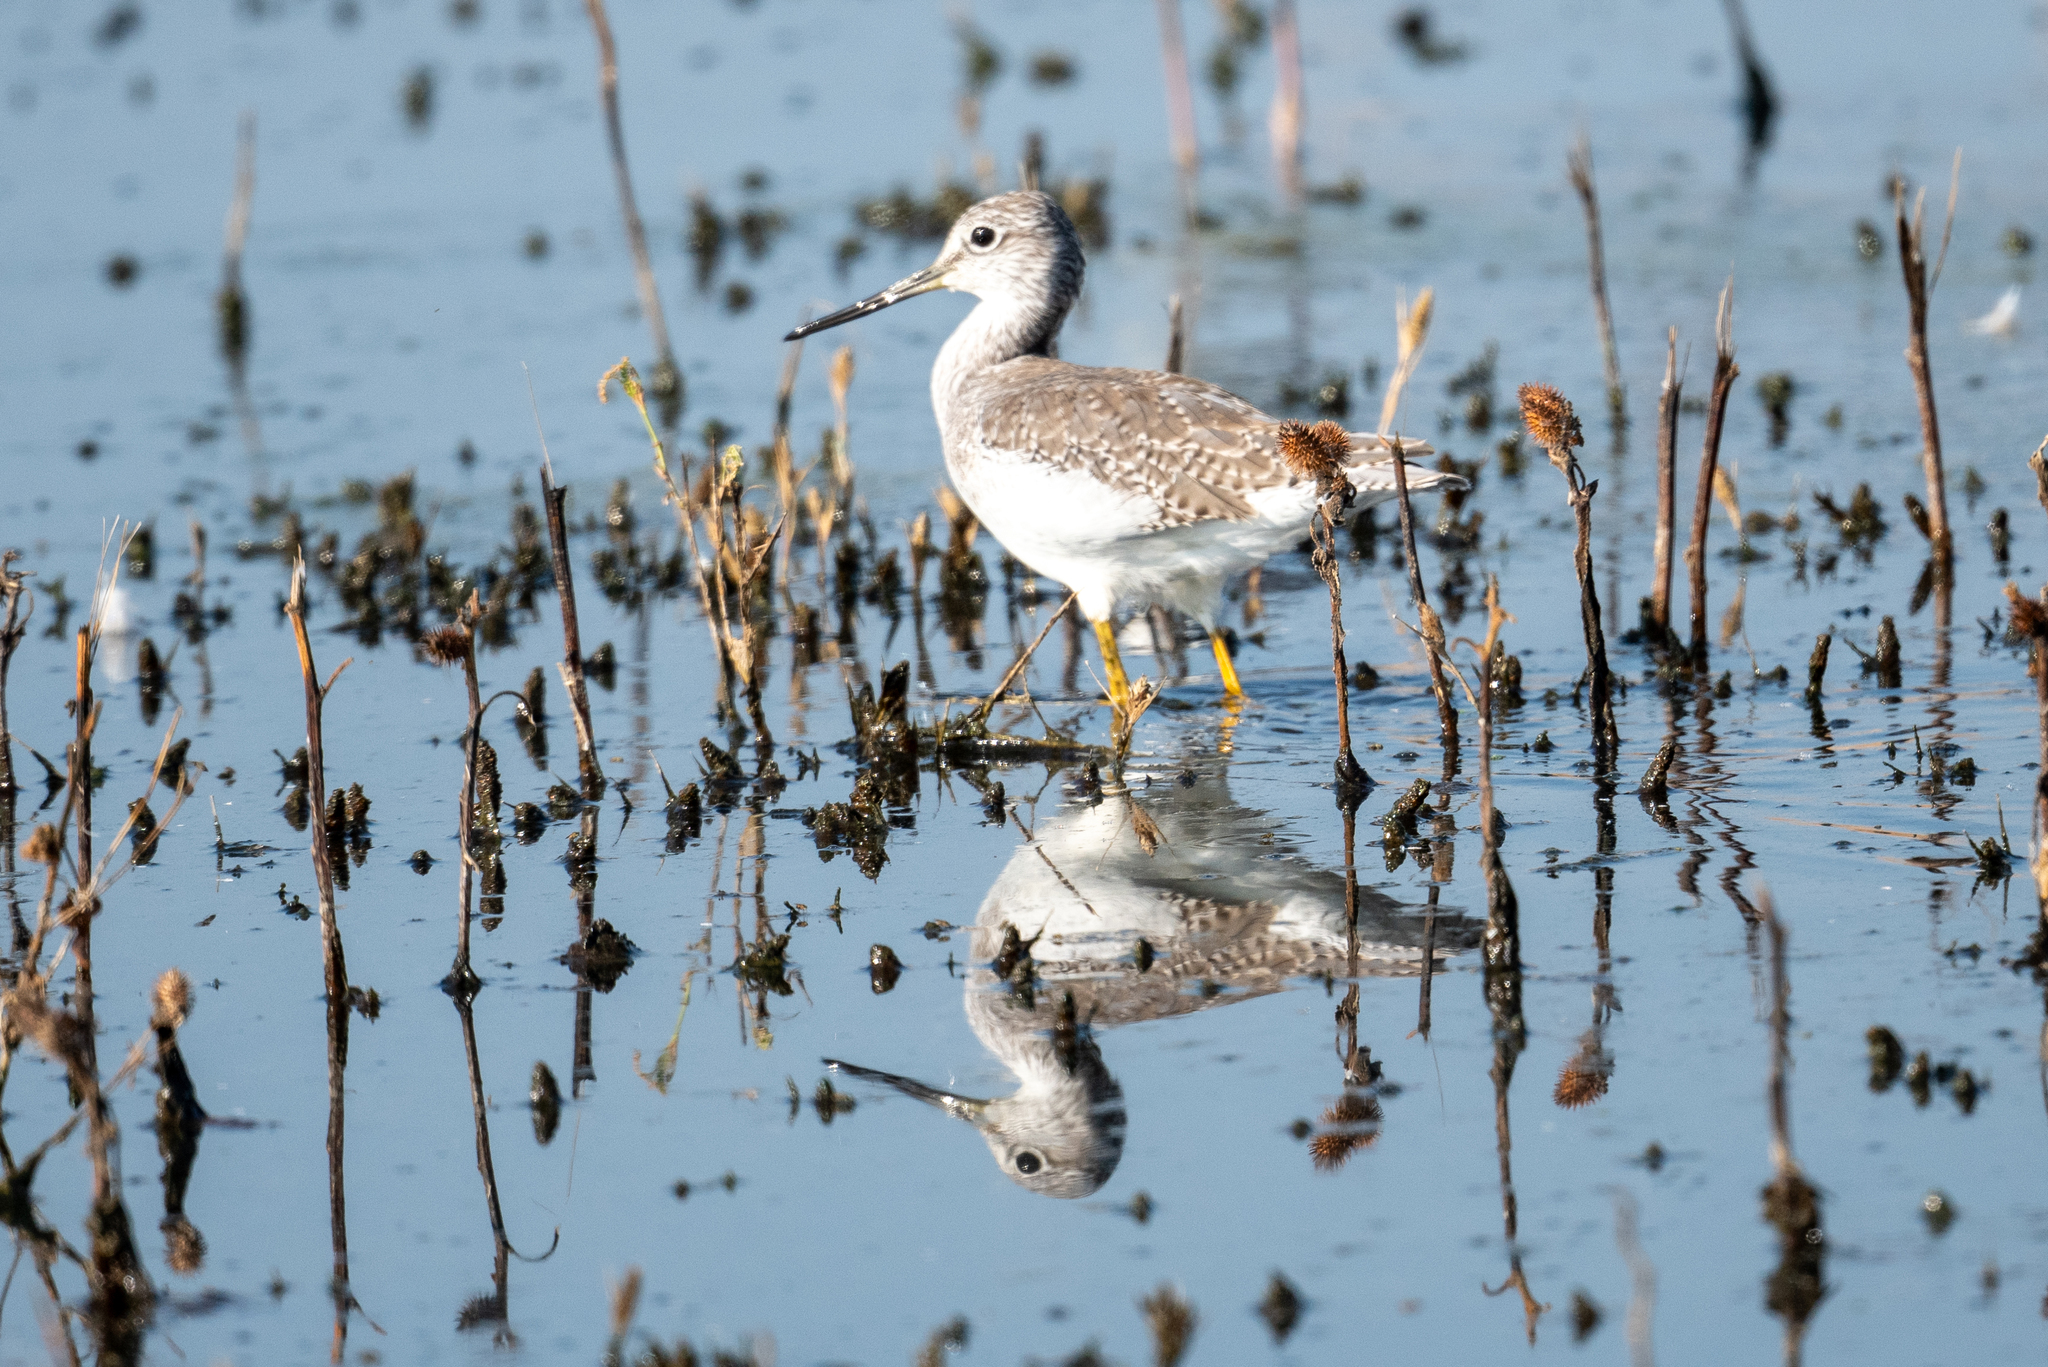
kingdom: Animalia
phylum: Chordata
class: Aves
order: Charadriiformes
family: Scolopacidae
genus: Tringa
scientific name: Tringa melanoleuca
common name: Greater yellowlegs
